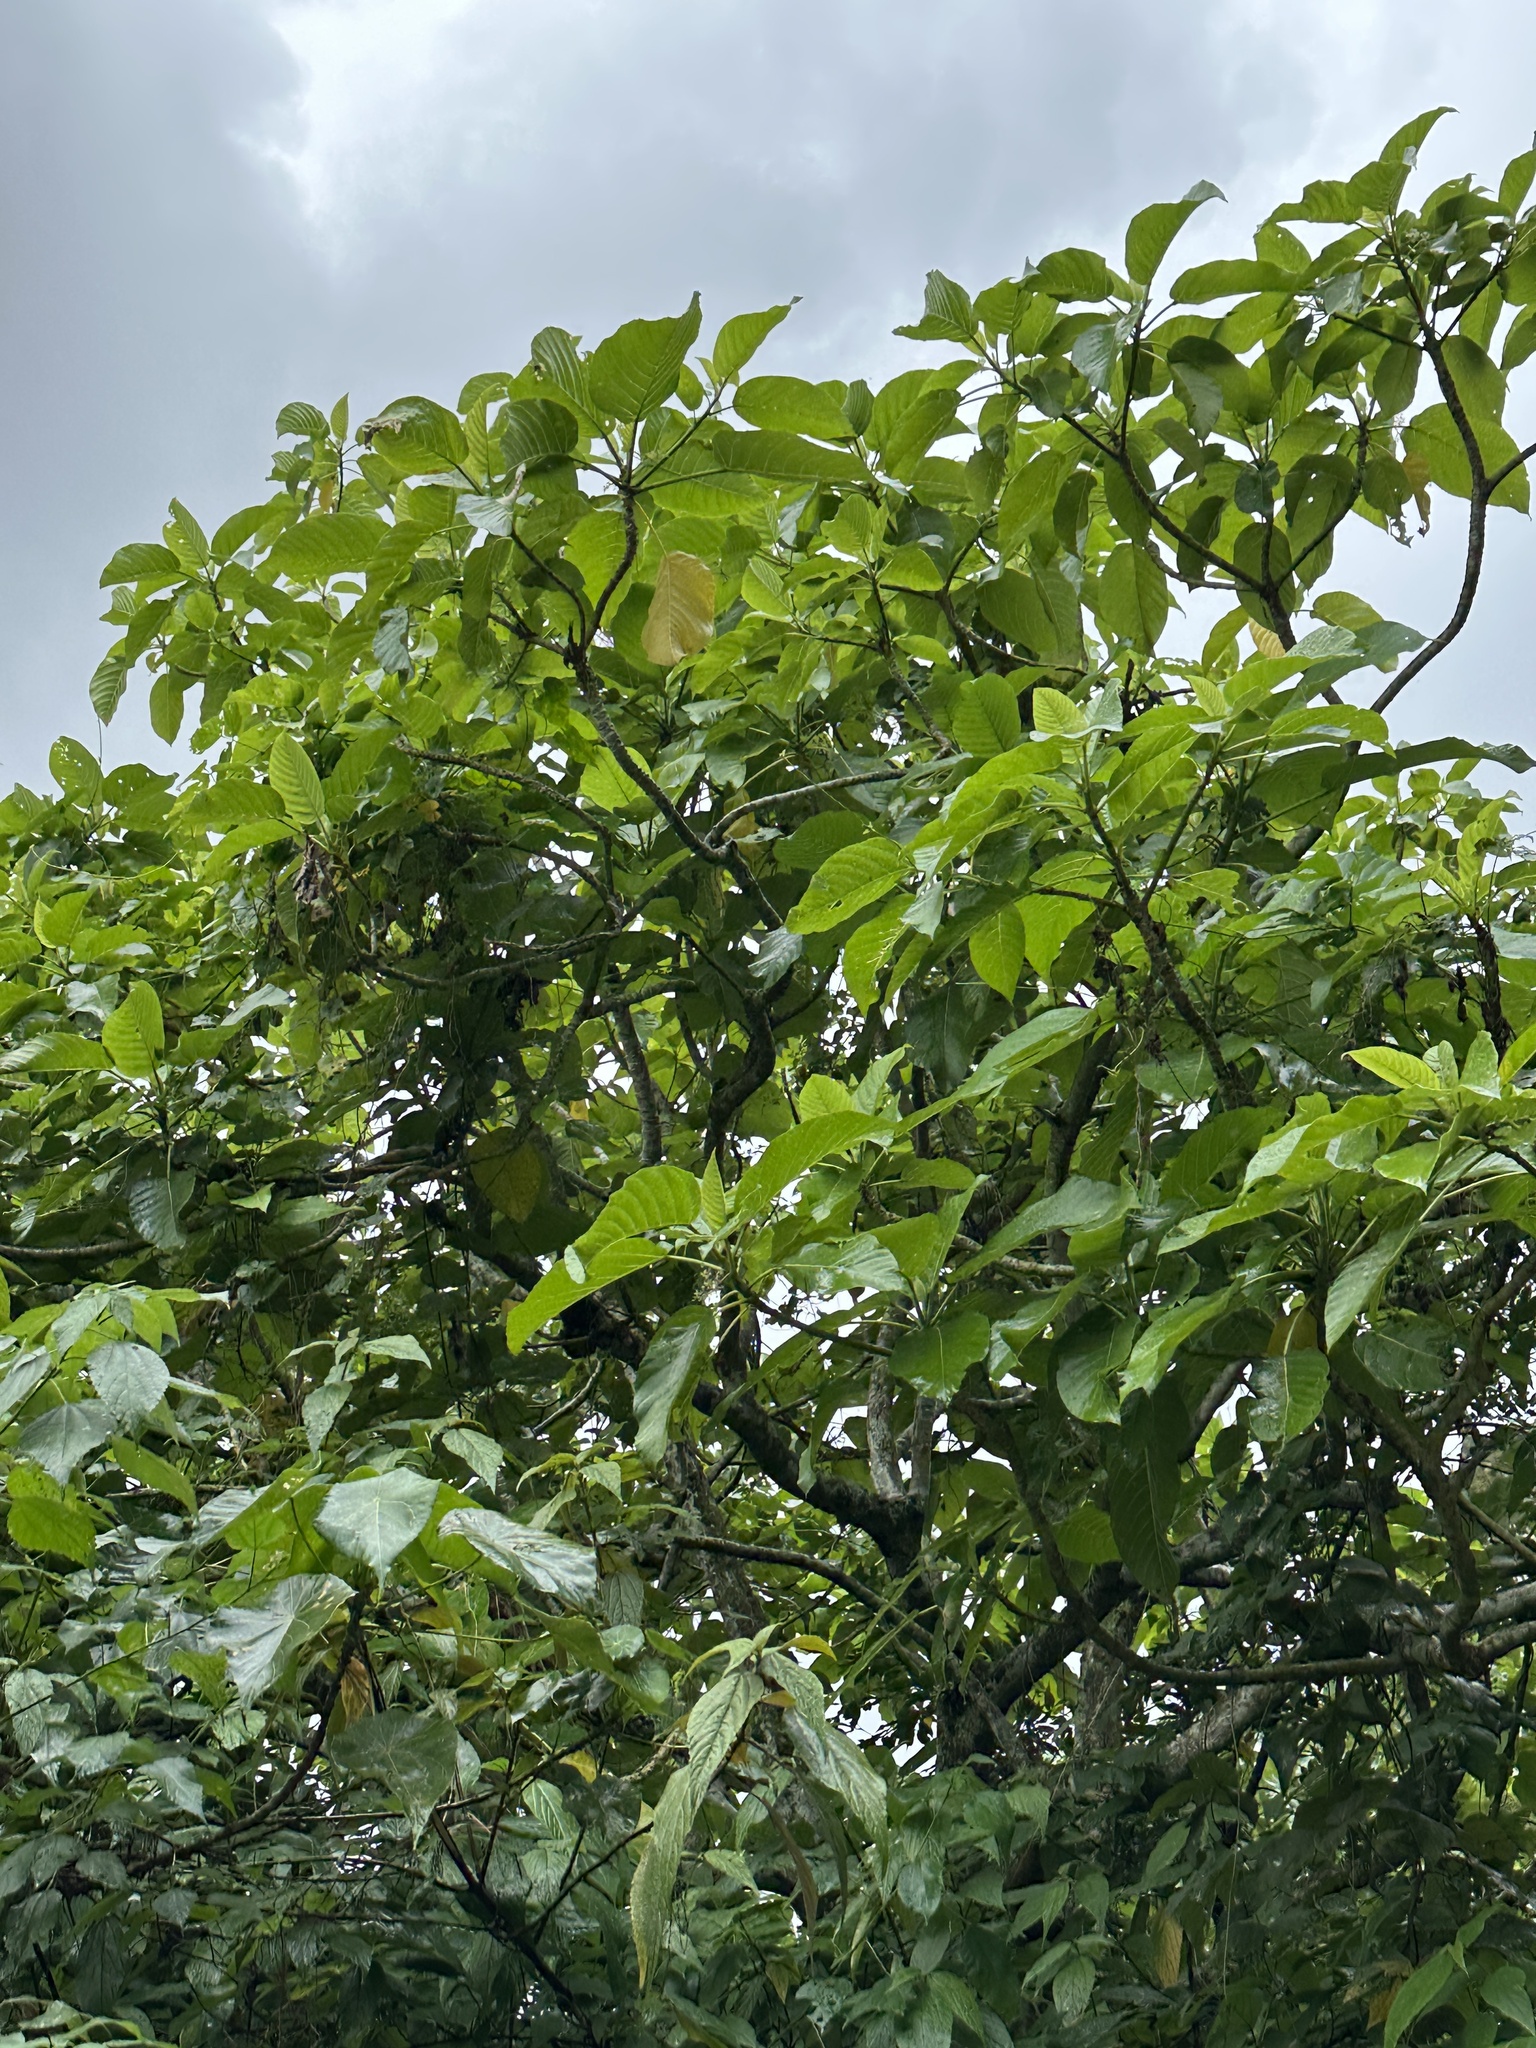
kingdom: Plantae
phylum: Tracheophyta
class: Magnoliopsida
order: Rosales
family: Urticaceae
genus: Dendrocnide
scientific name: Dendrocnide meyeniana
